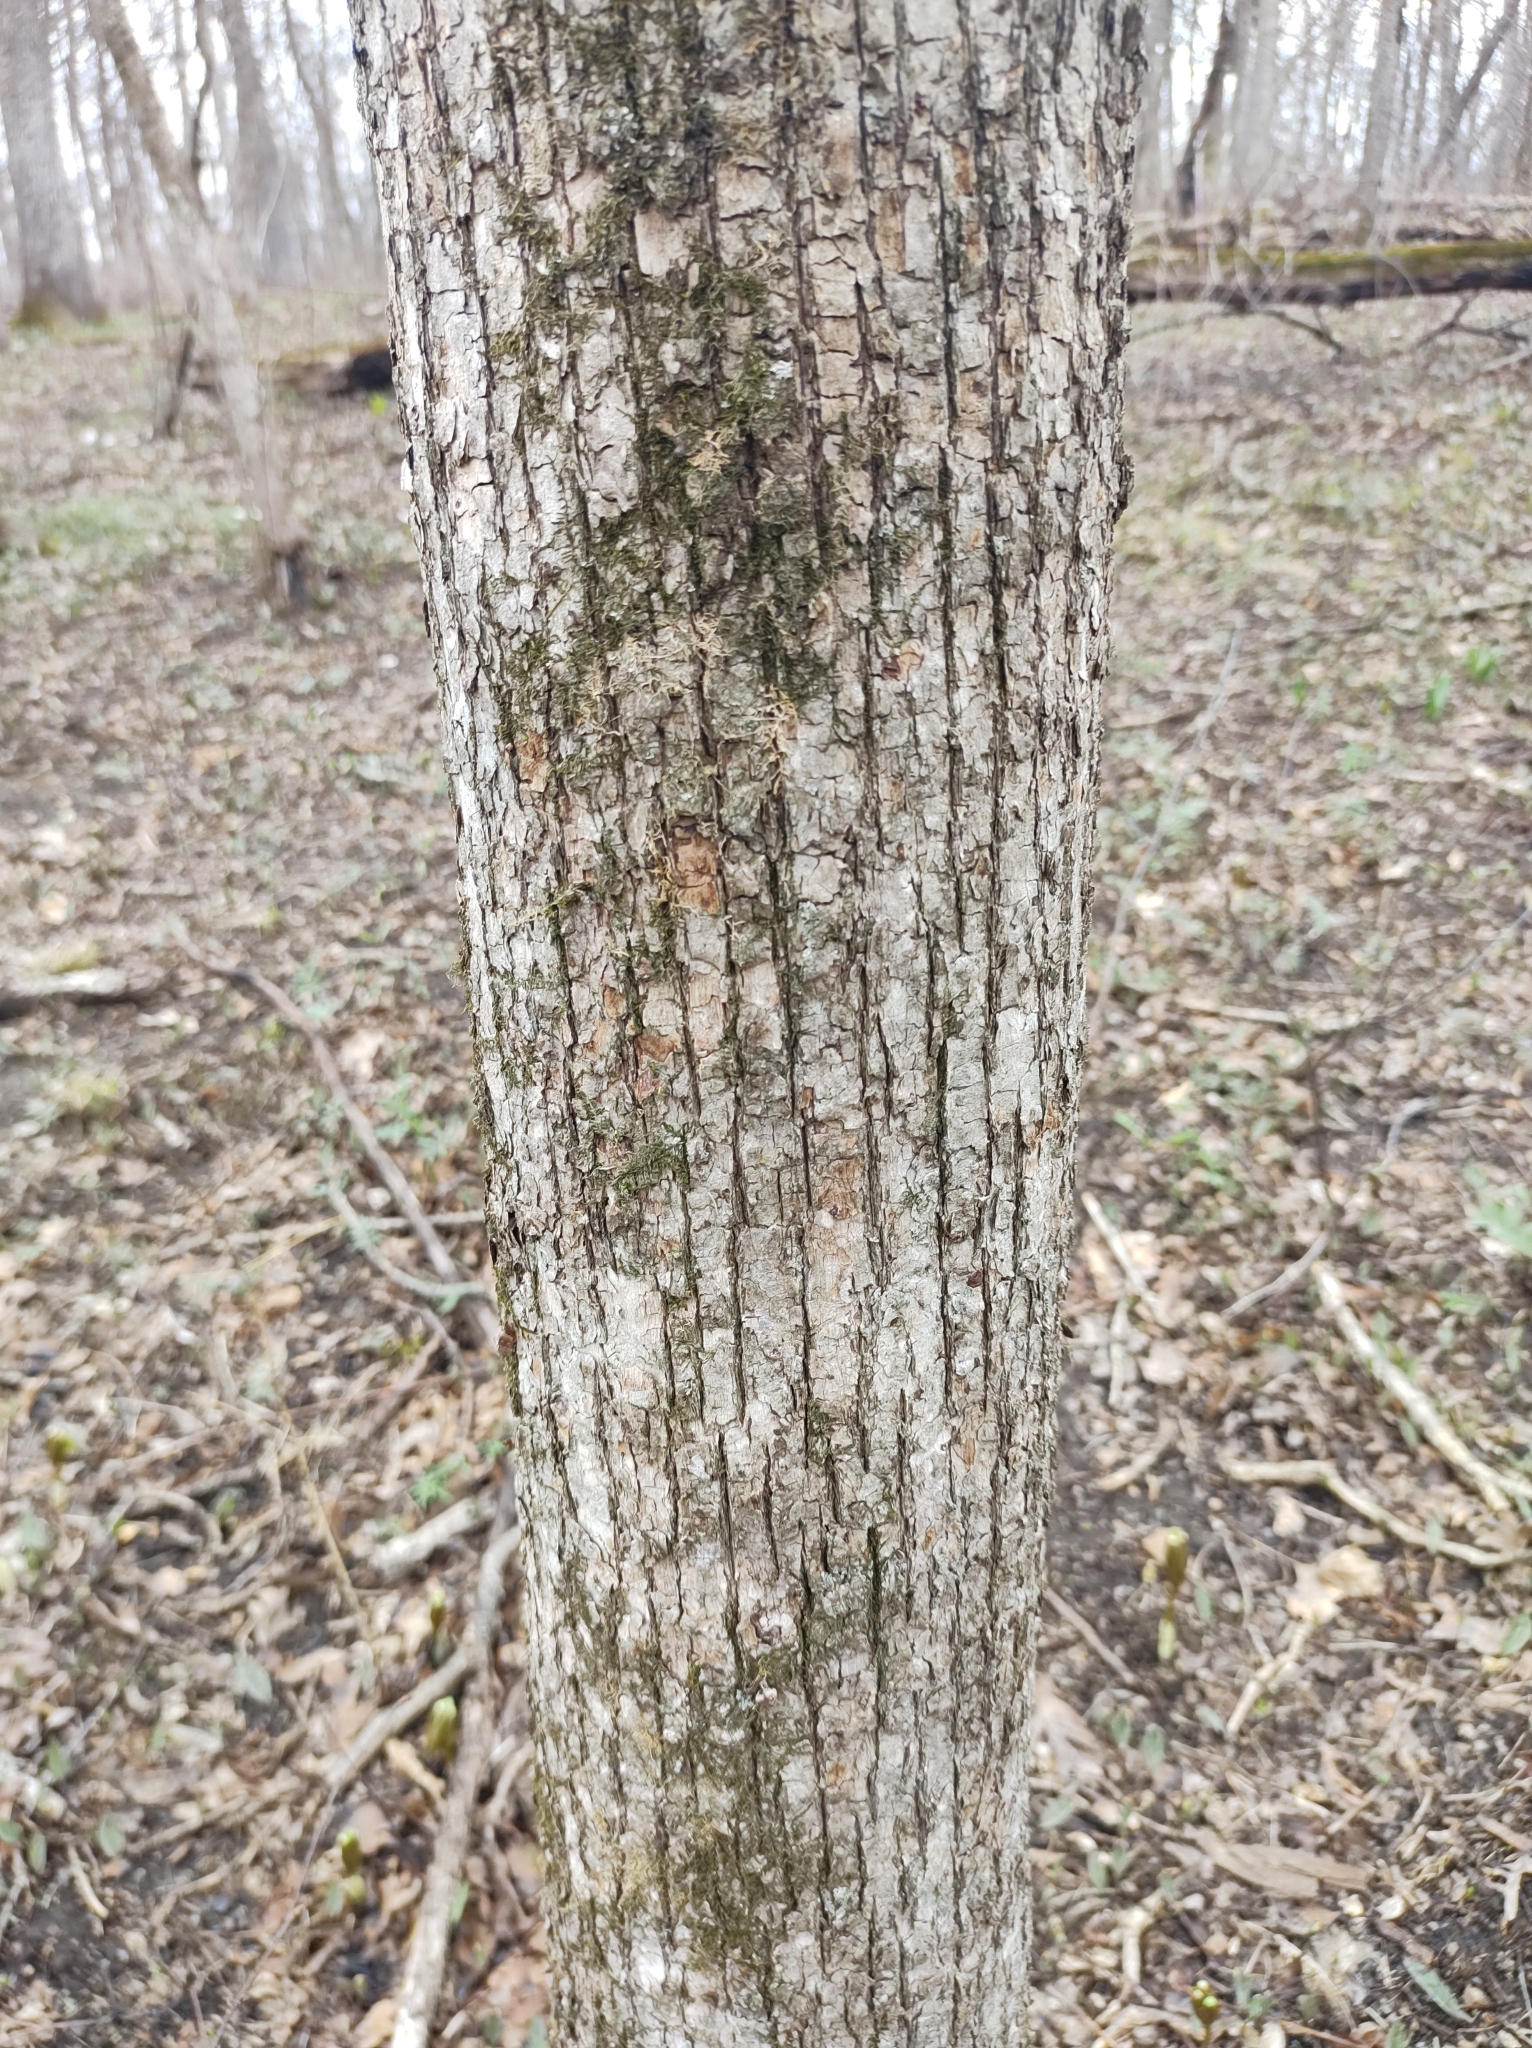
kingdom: Plantae
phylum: Tracheophyta
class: Magnoliopsida
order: Fagales
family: Betulaceae
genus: Ostrya
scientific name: Ostrya virginiana
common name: Ironwood
